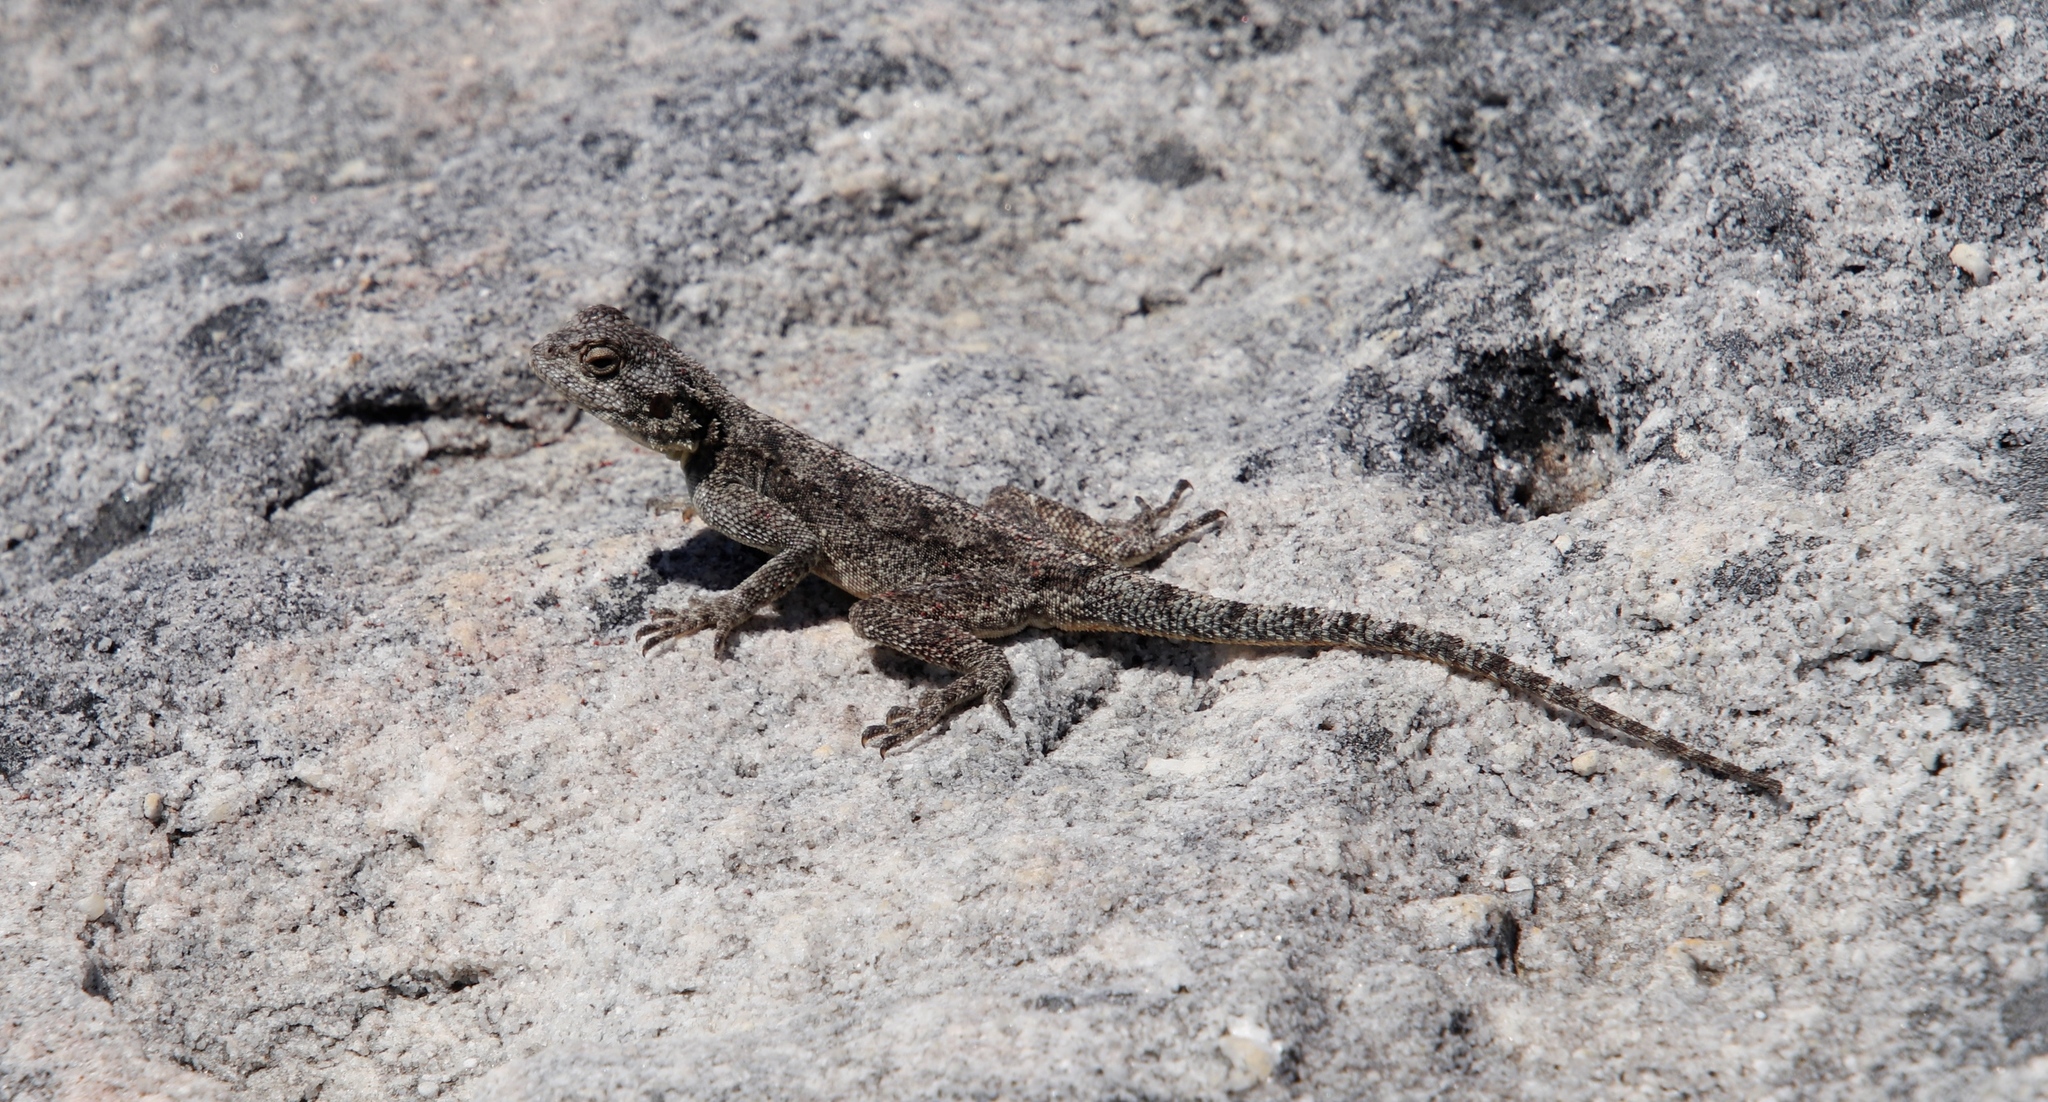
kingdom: Animalia
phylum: Chordata
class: Squamata
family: Agamidae
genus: Agama
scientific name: Agama atra
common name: Southern african rock agama
